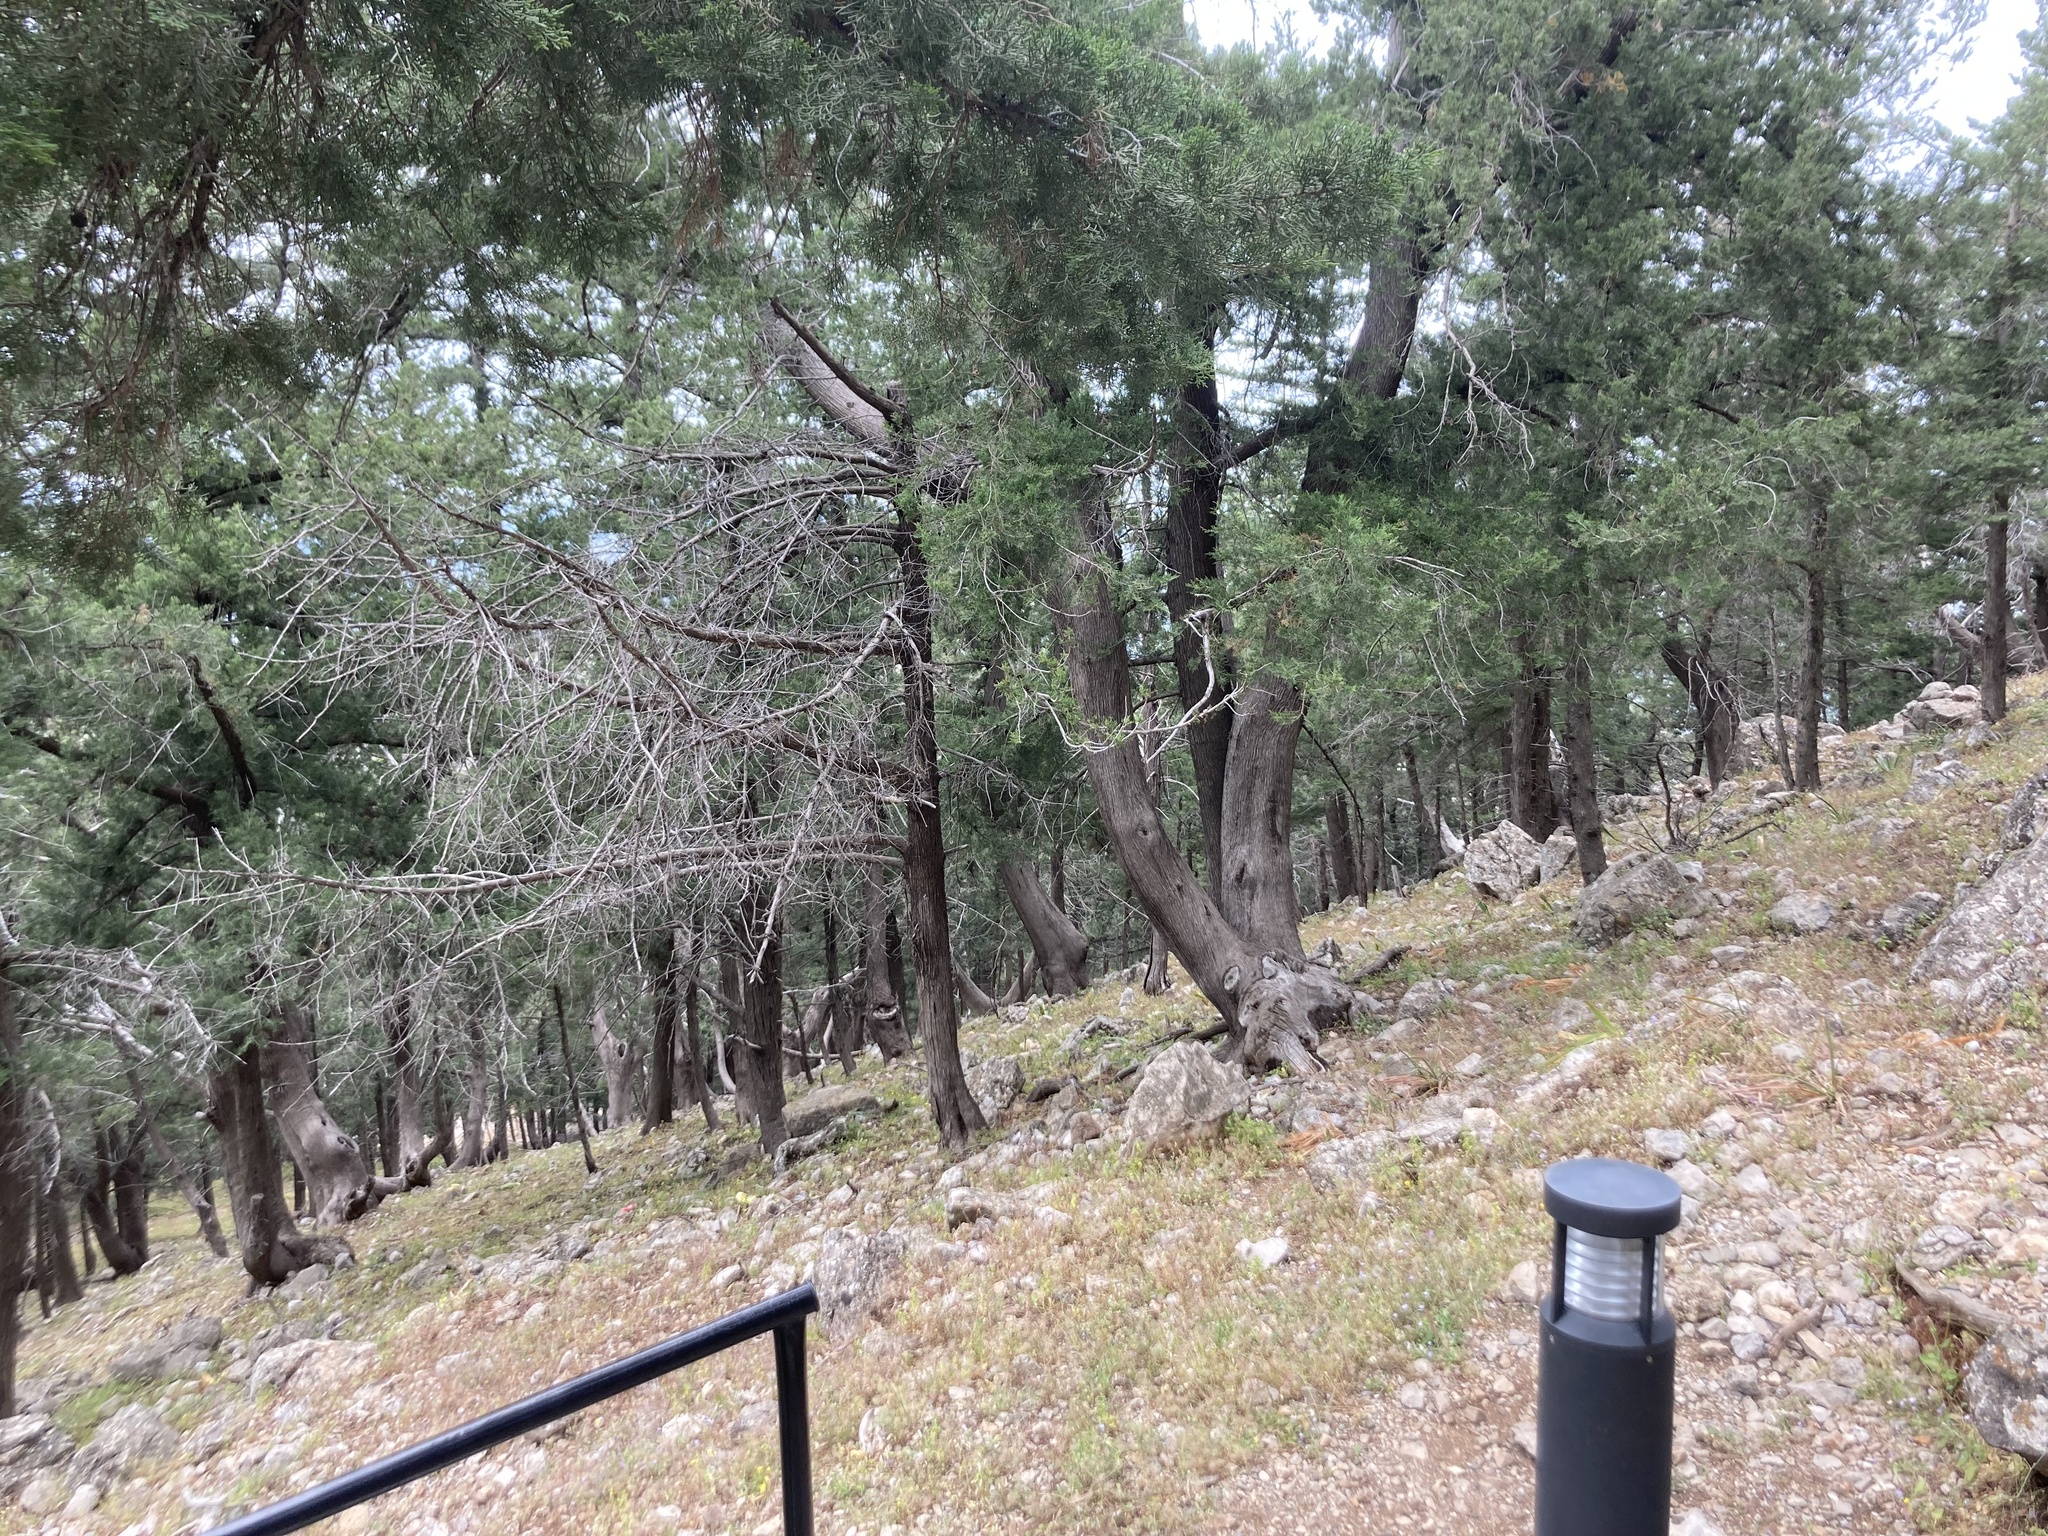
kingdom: Plantae
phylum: Tracheophyta
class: Pinopsida
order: Pinales
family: Cupressaceae
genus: Cupressus
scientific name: Cupressus sempervirens
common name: Italian cypress
